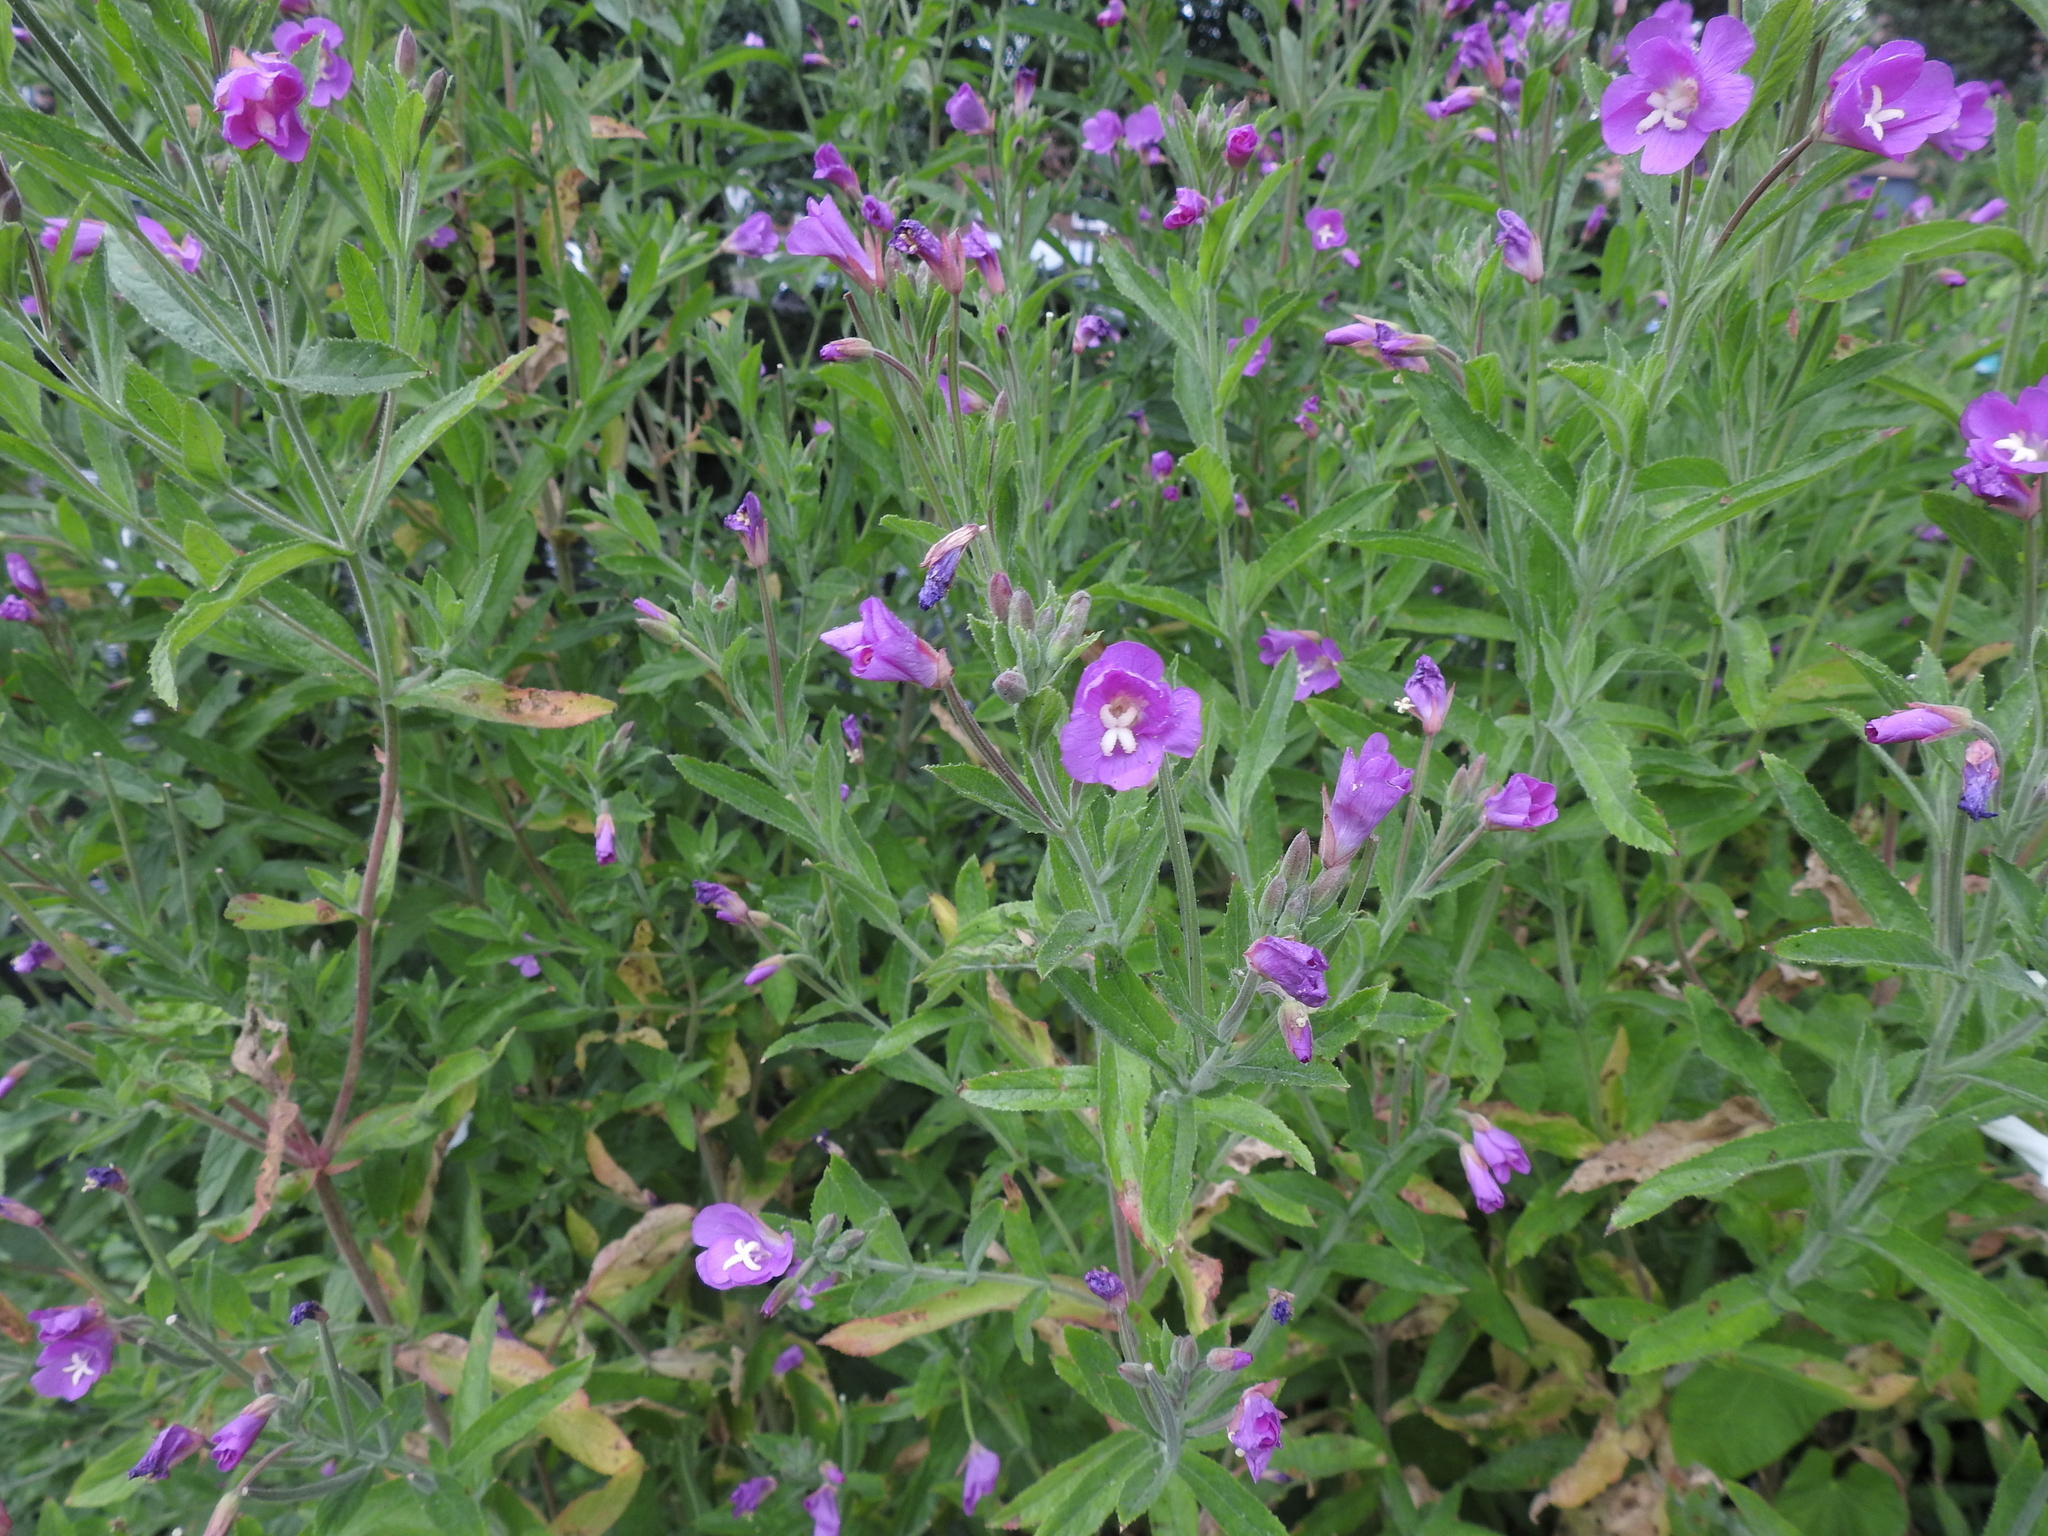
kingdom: Plantae
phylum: Tracheophyta
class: Magnoliopsida
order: Myrtales
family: Onagraceae
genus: Epilobium
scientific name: Epilobium hirsutum
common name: Great willowherb
